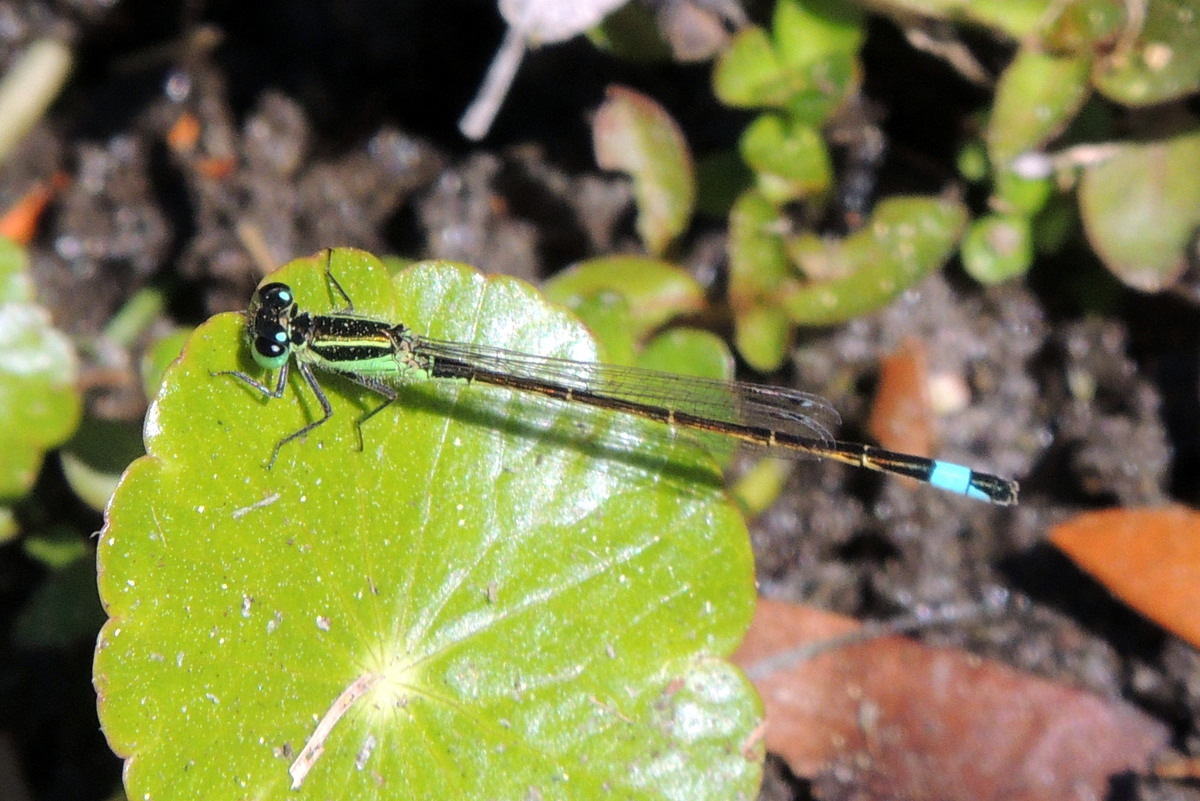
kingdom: Animalia
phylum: Arthropoda
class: Insecta
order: Odonata
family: Coenagrionidae
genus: Ischnura
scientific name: Ischnura ramburii
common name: Rambur's forktail
